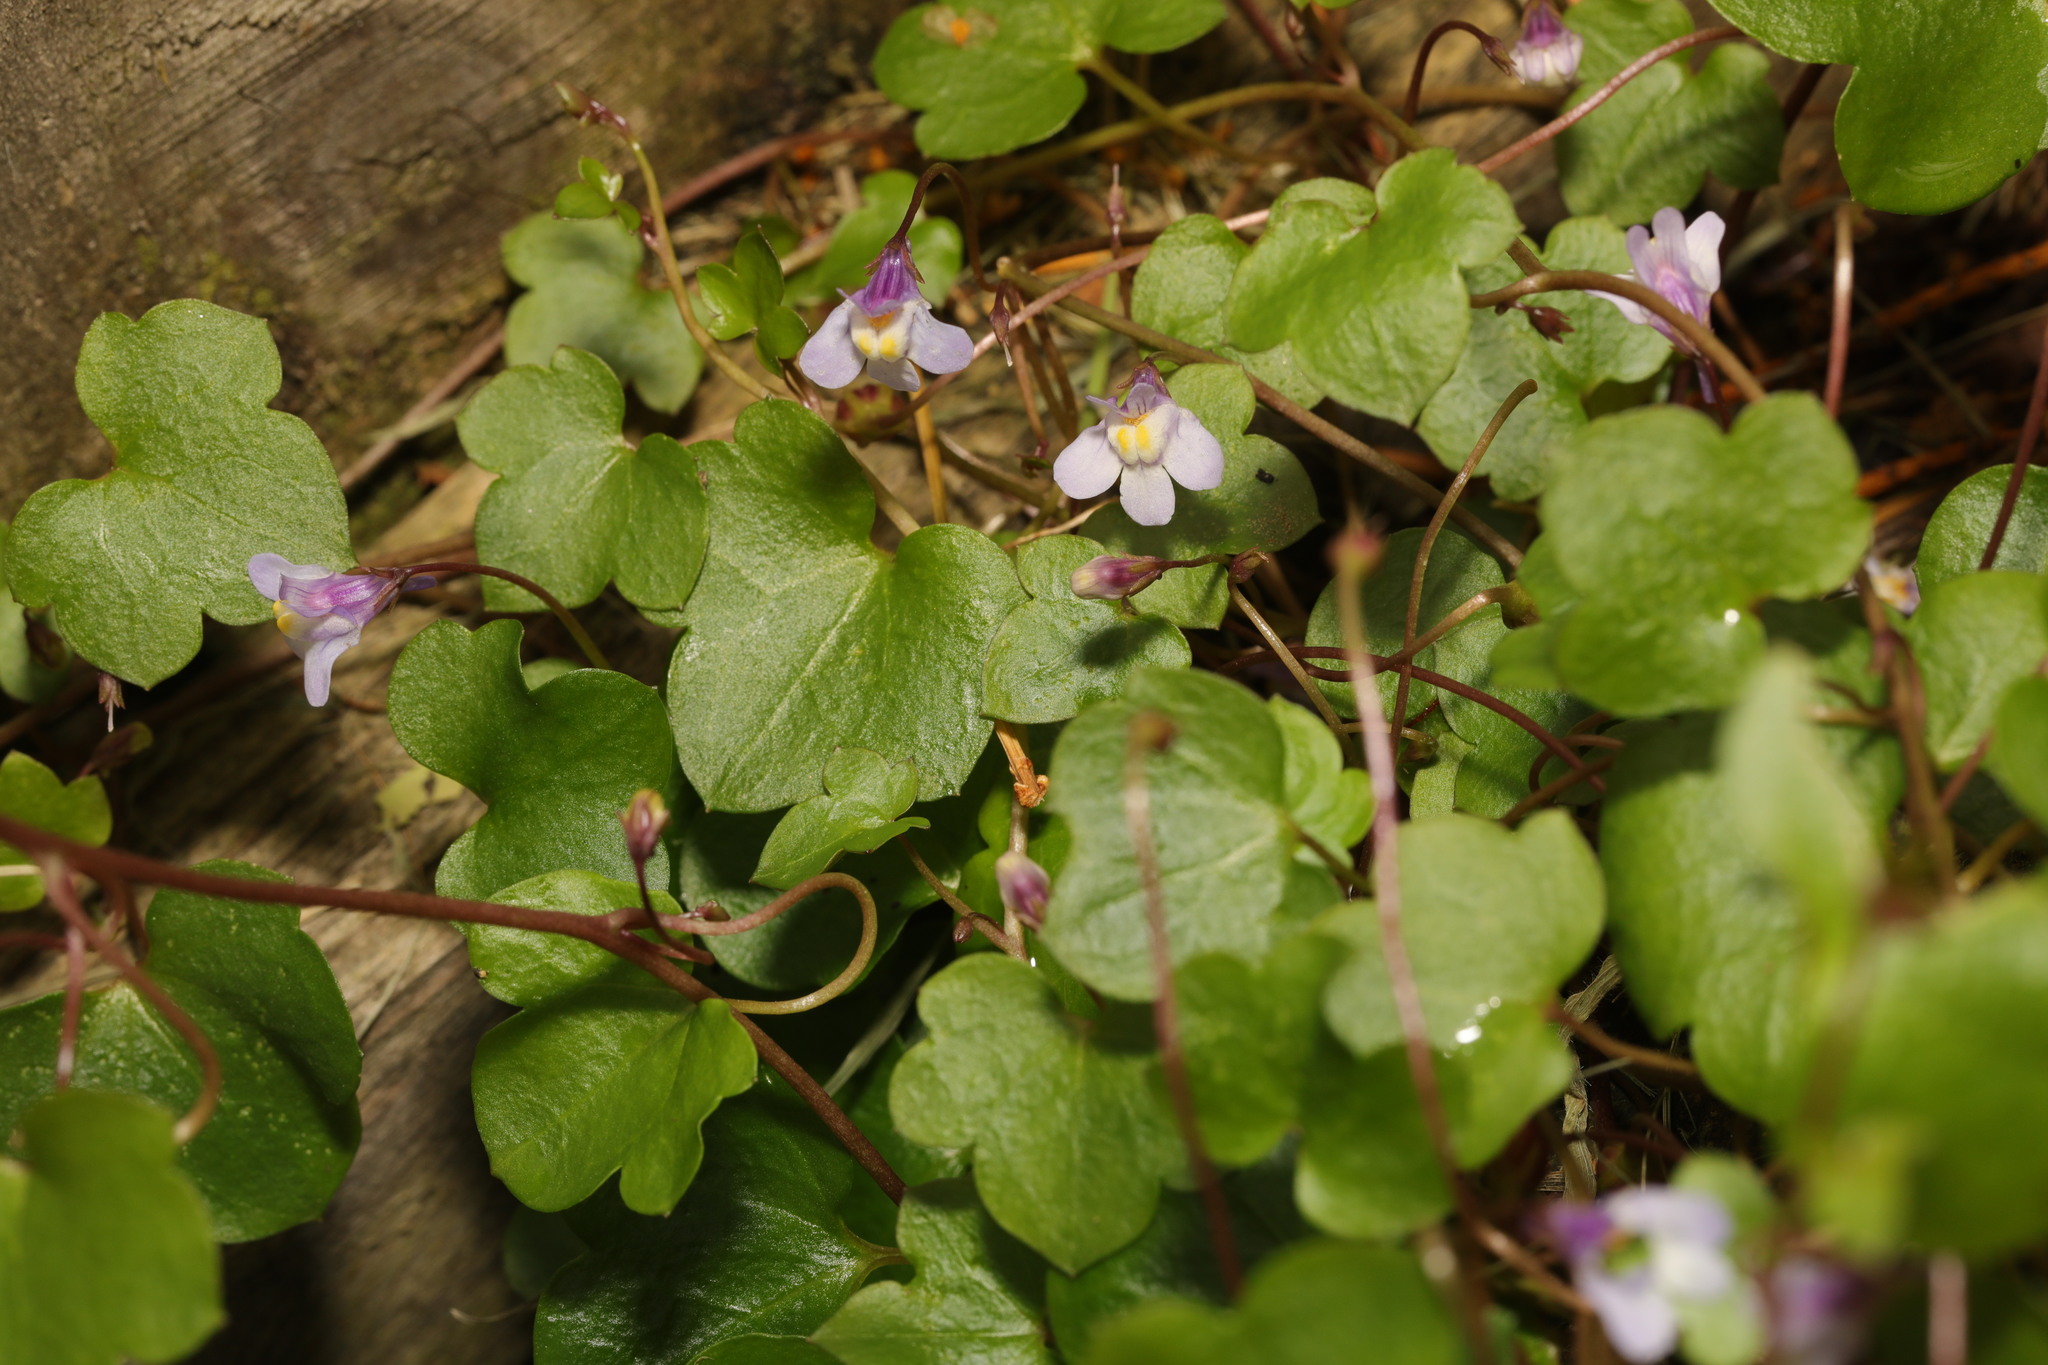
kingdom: Plantae
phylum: Tracheophyta
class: Magnoliopsida
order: Lamiales
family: Plantaginaceae
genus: Cymbalaria
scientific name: Cymbalaria muralis
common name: Ivy-leaved toadflax
